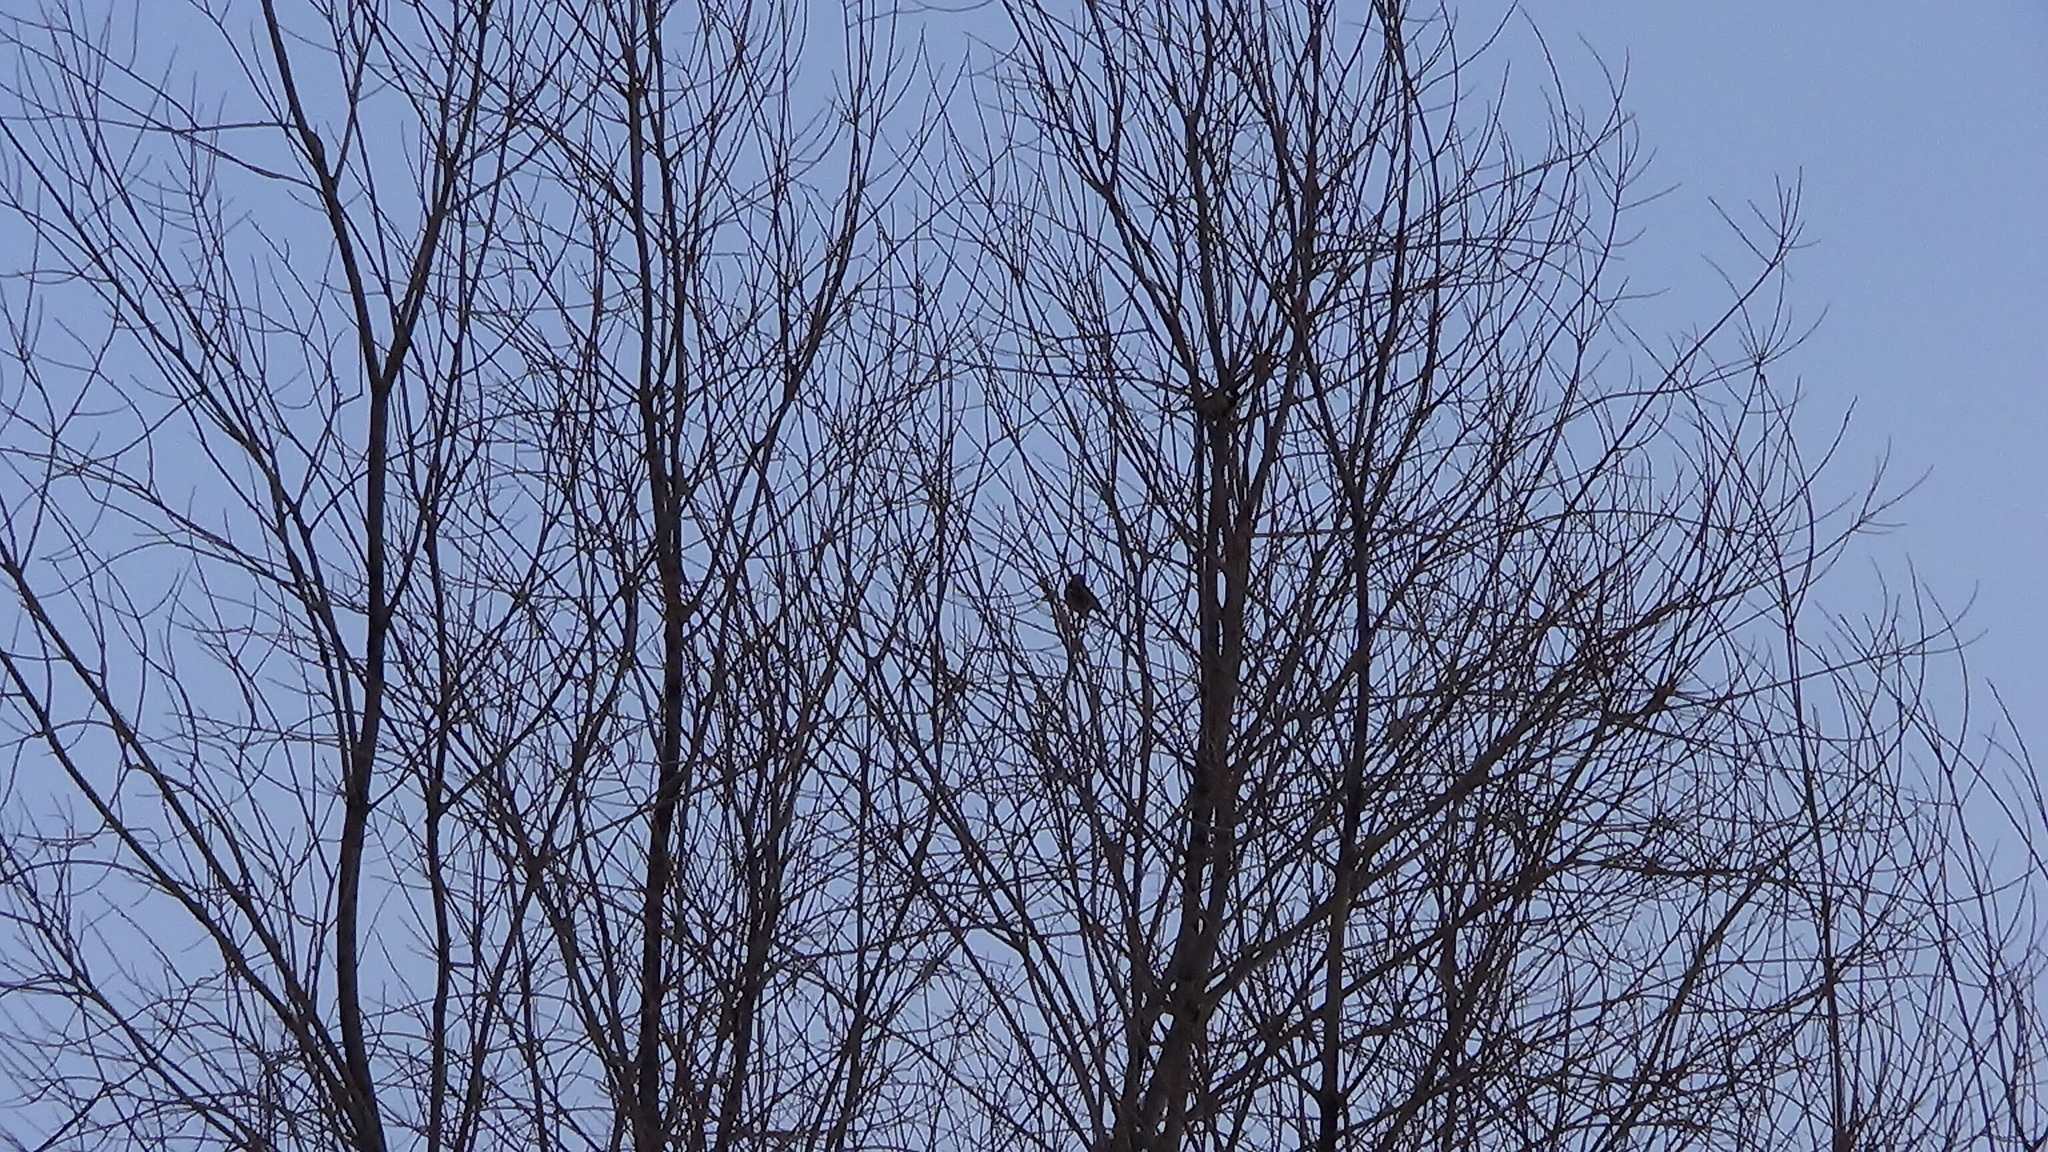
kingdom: Animalia
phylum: Chordata
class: Aves
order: Passeriformes
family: Fringillidae
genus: Coccothraustes
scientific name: Coccothraustes coccothraustes
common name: Hawfinch
